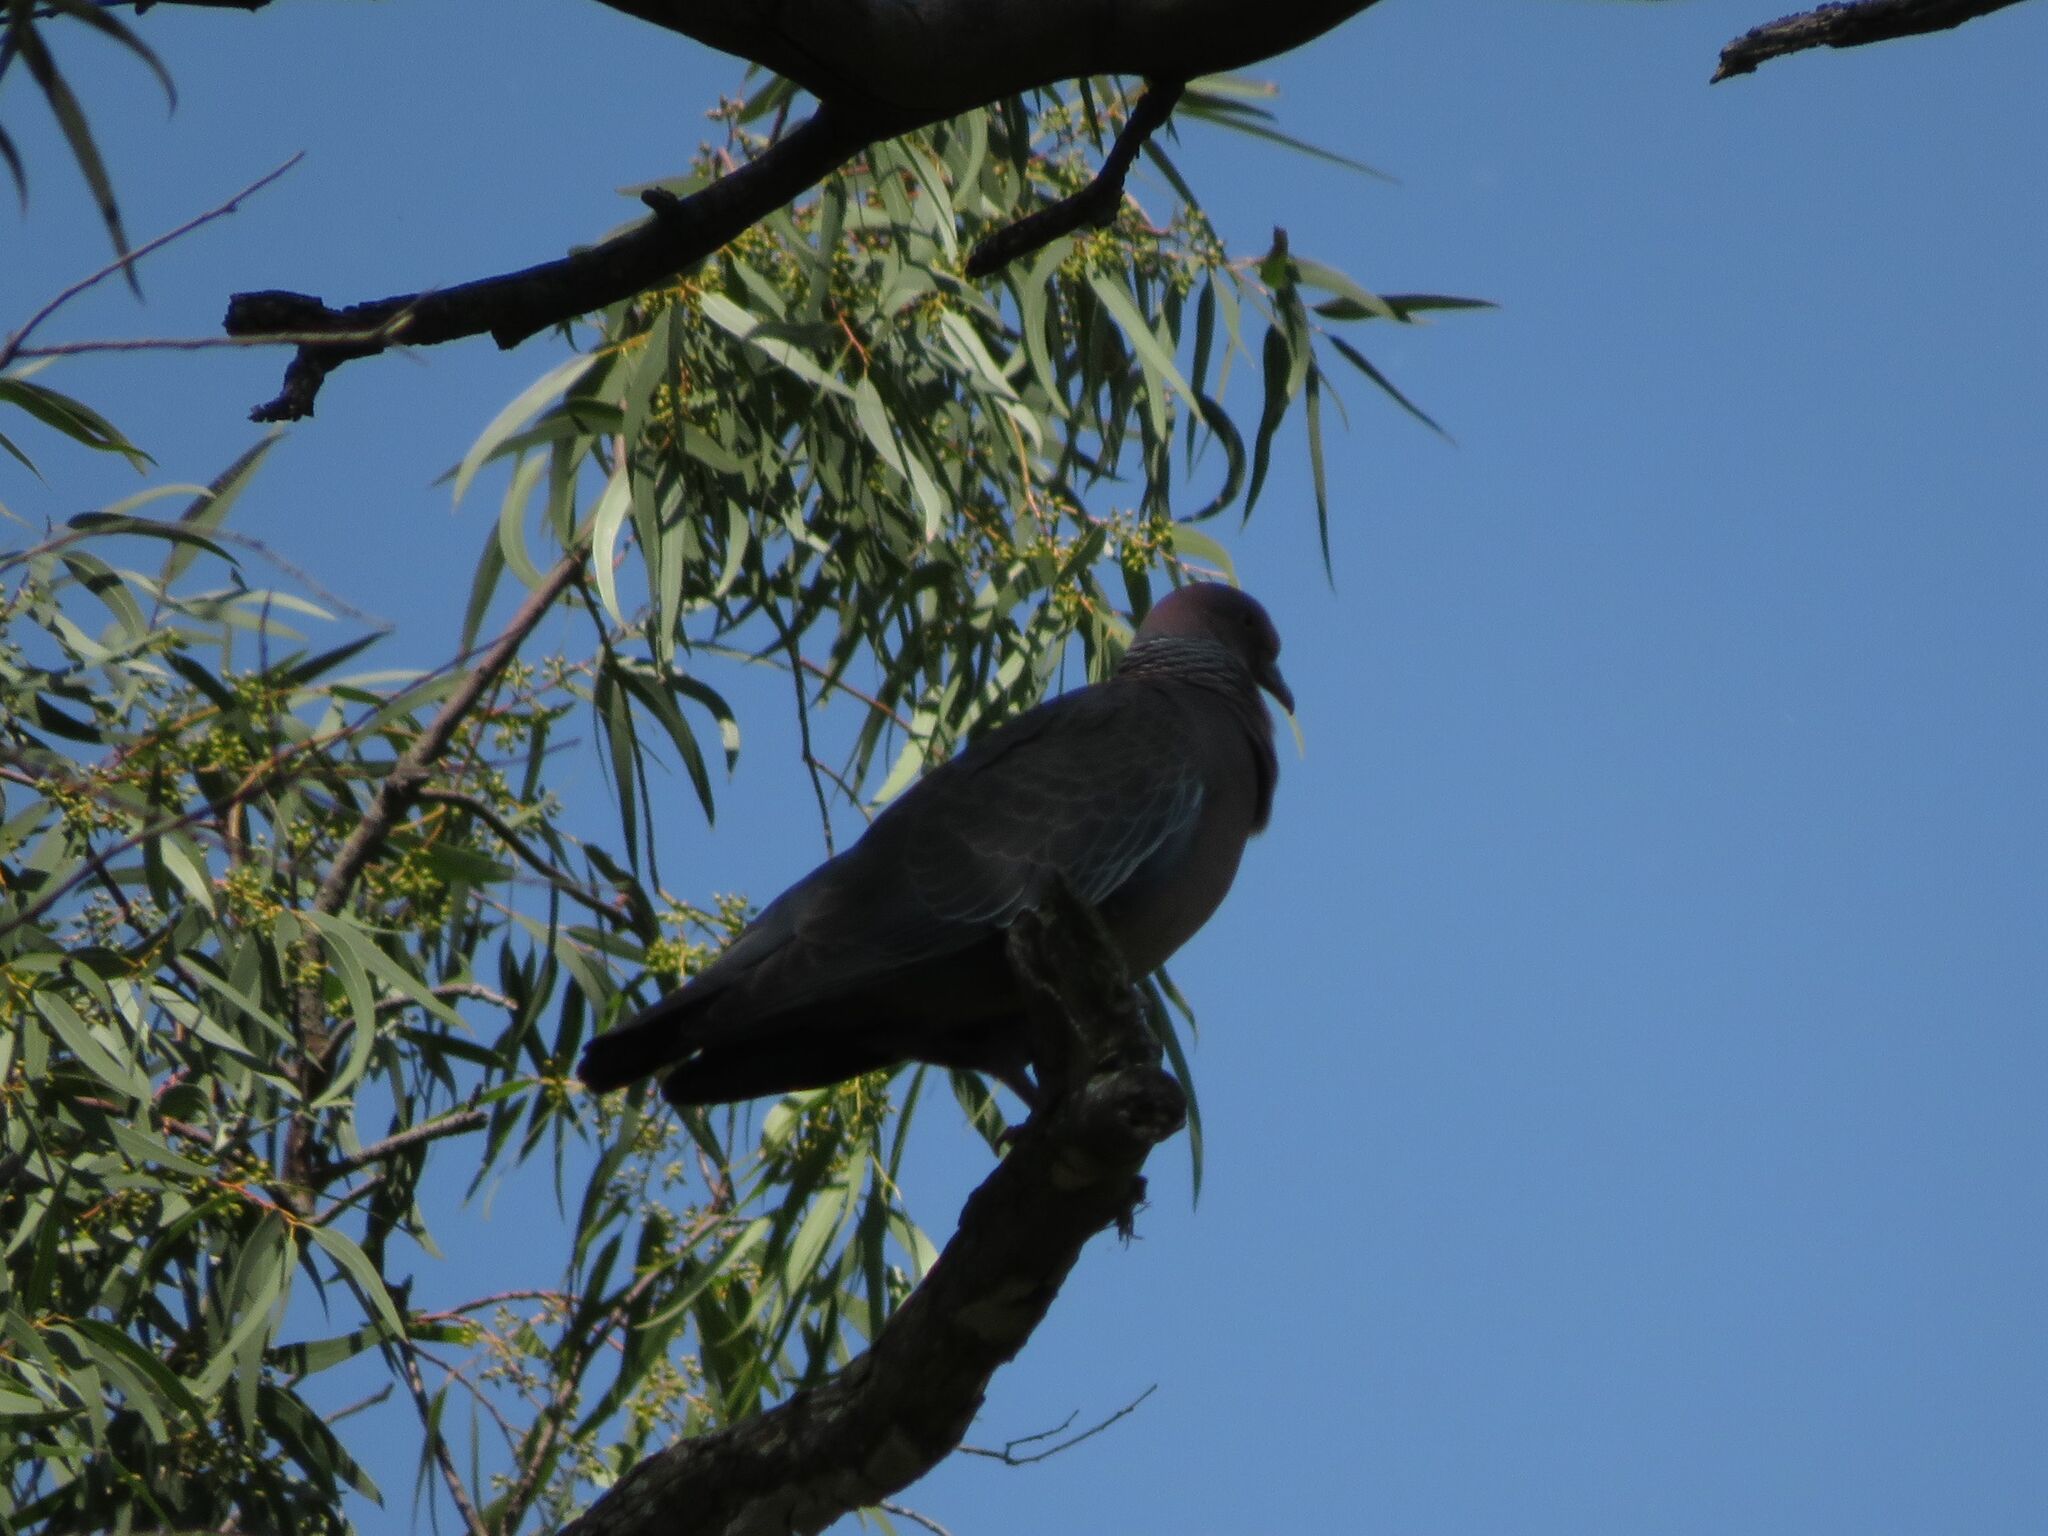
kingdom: Animalia
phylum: Chordata
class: Aves
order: Columbiformes
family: Columbidae
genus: Patagioenas
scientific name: Patagioenas picazuro
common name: Picazuro pigeon
